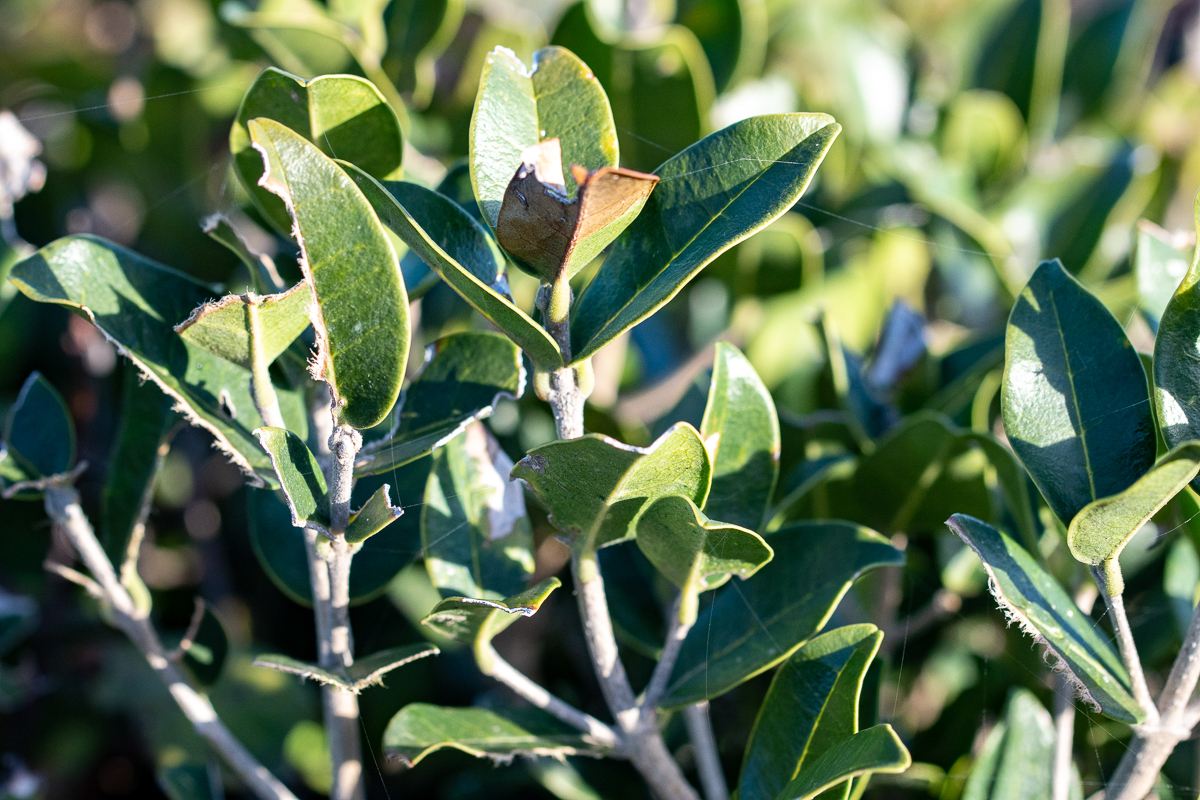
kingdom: Plantae
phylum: Tracheophyta
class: Magnoliopsida
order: Ericales
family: Sapotaceae
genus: Sideroxylon
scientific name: Sideroxylon inerme
